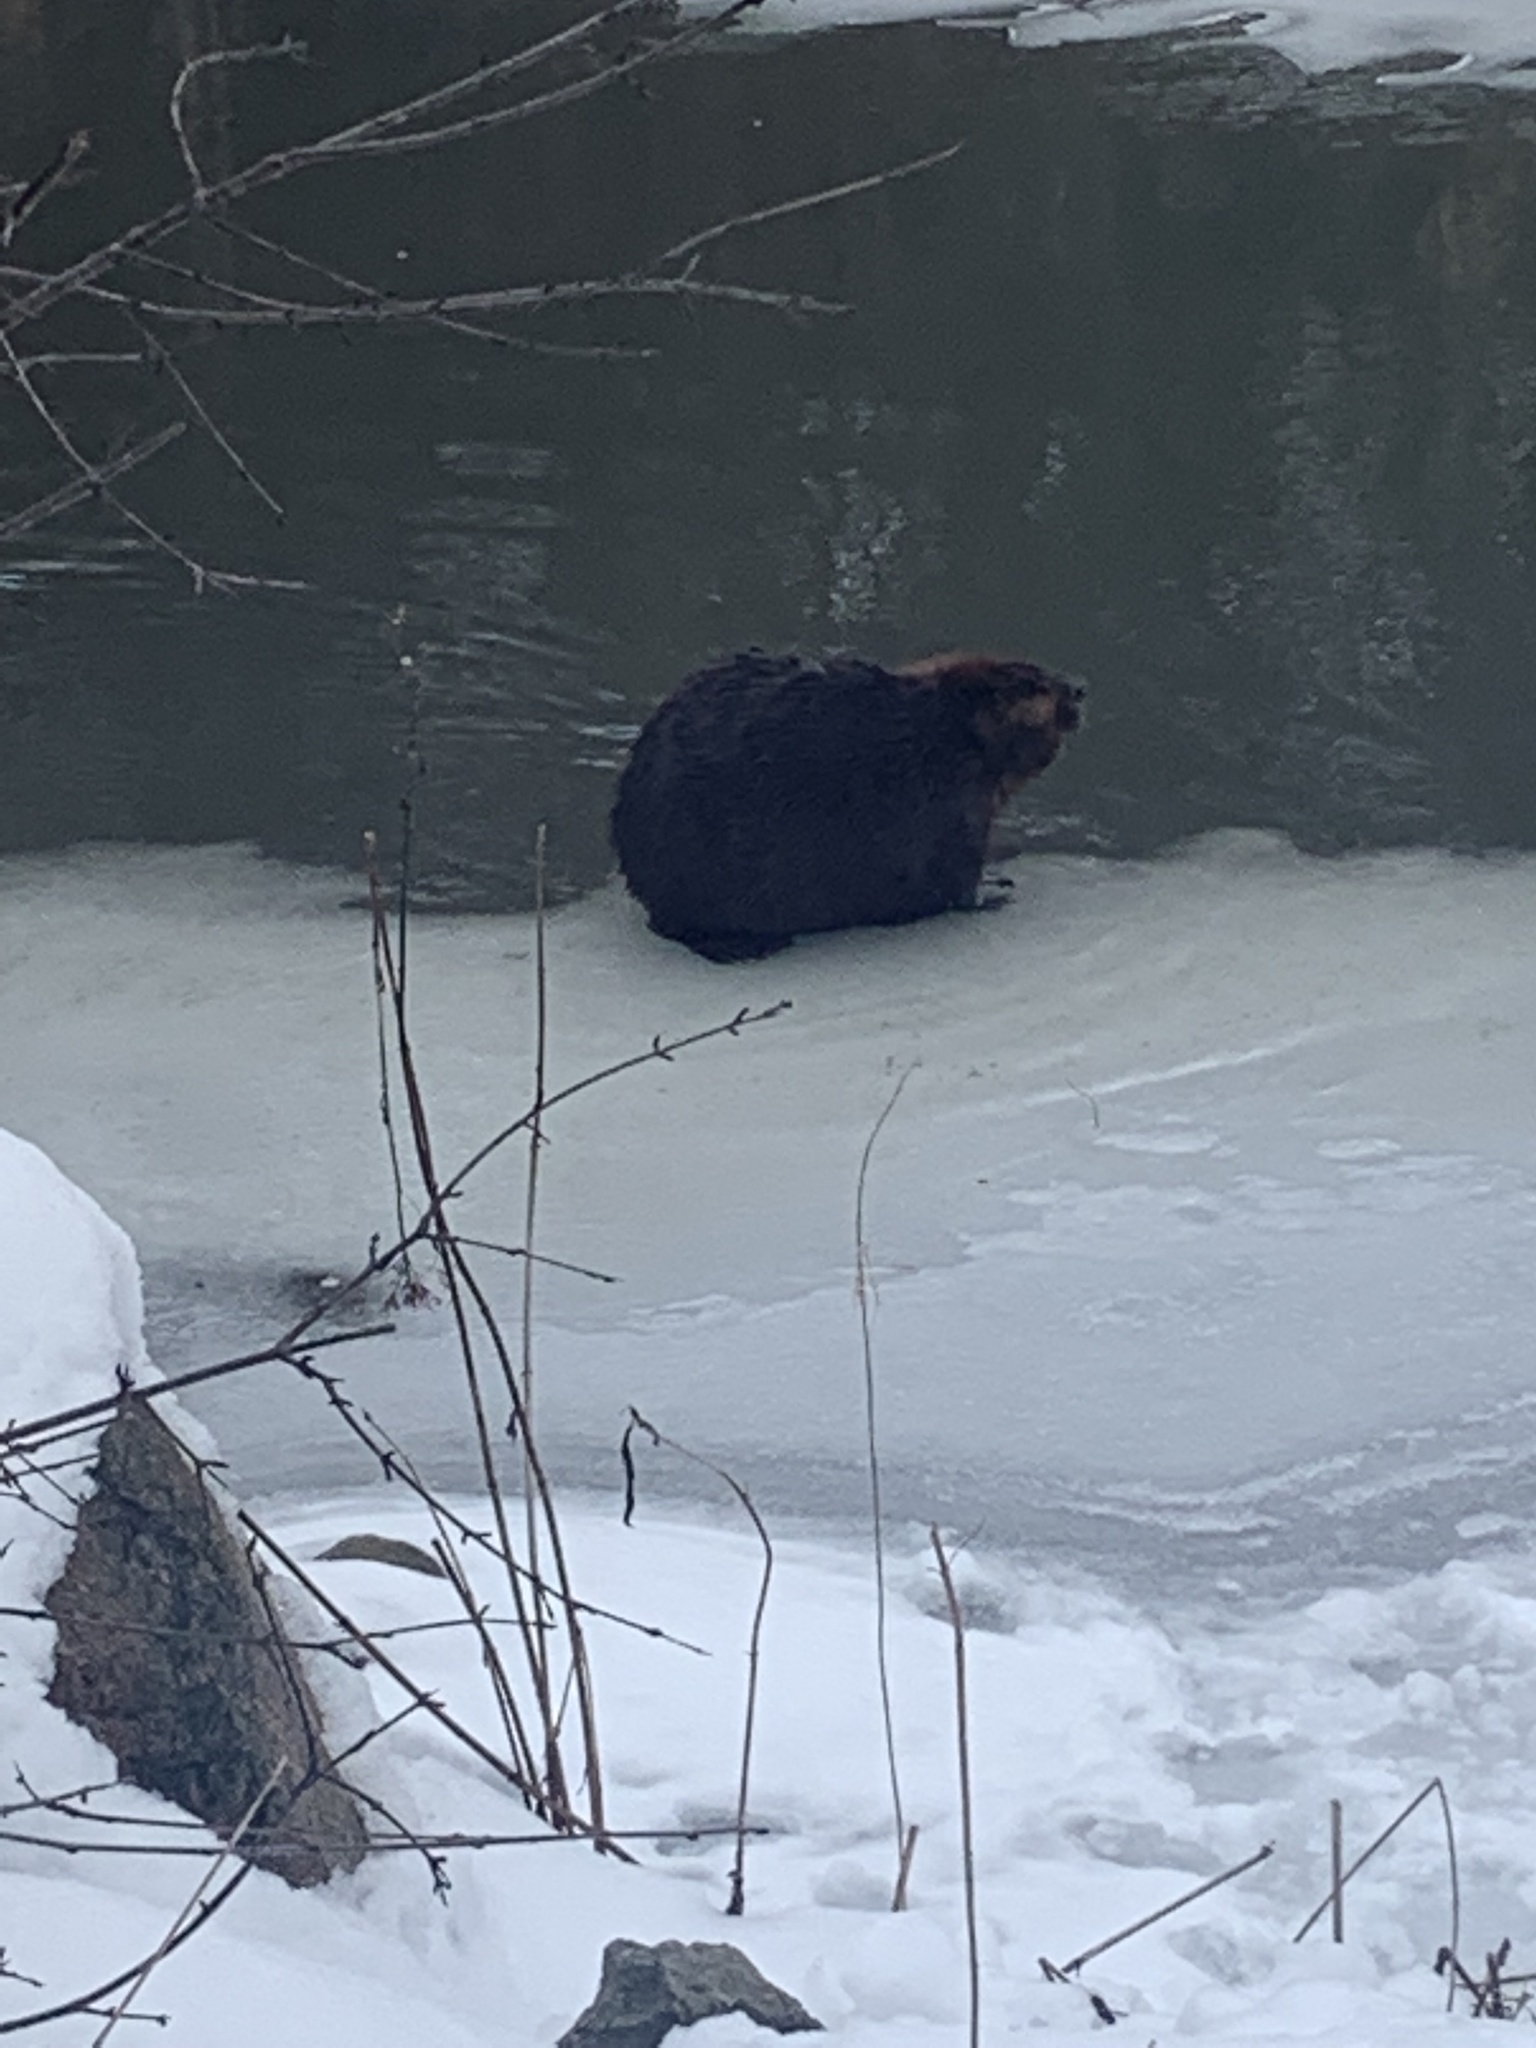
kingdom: Animalia
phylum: Chordata
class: Mammalia
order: Rodentia
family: Castoridae
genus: Castor
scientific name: Castor canadensis
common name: American beaver
